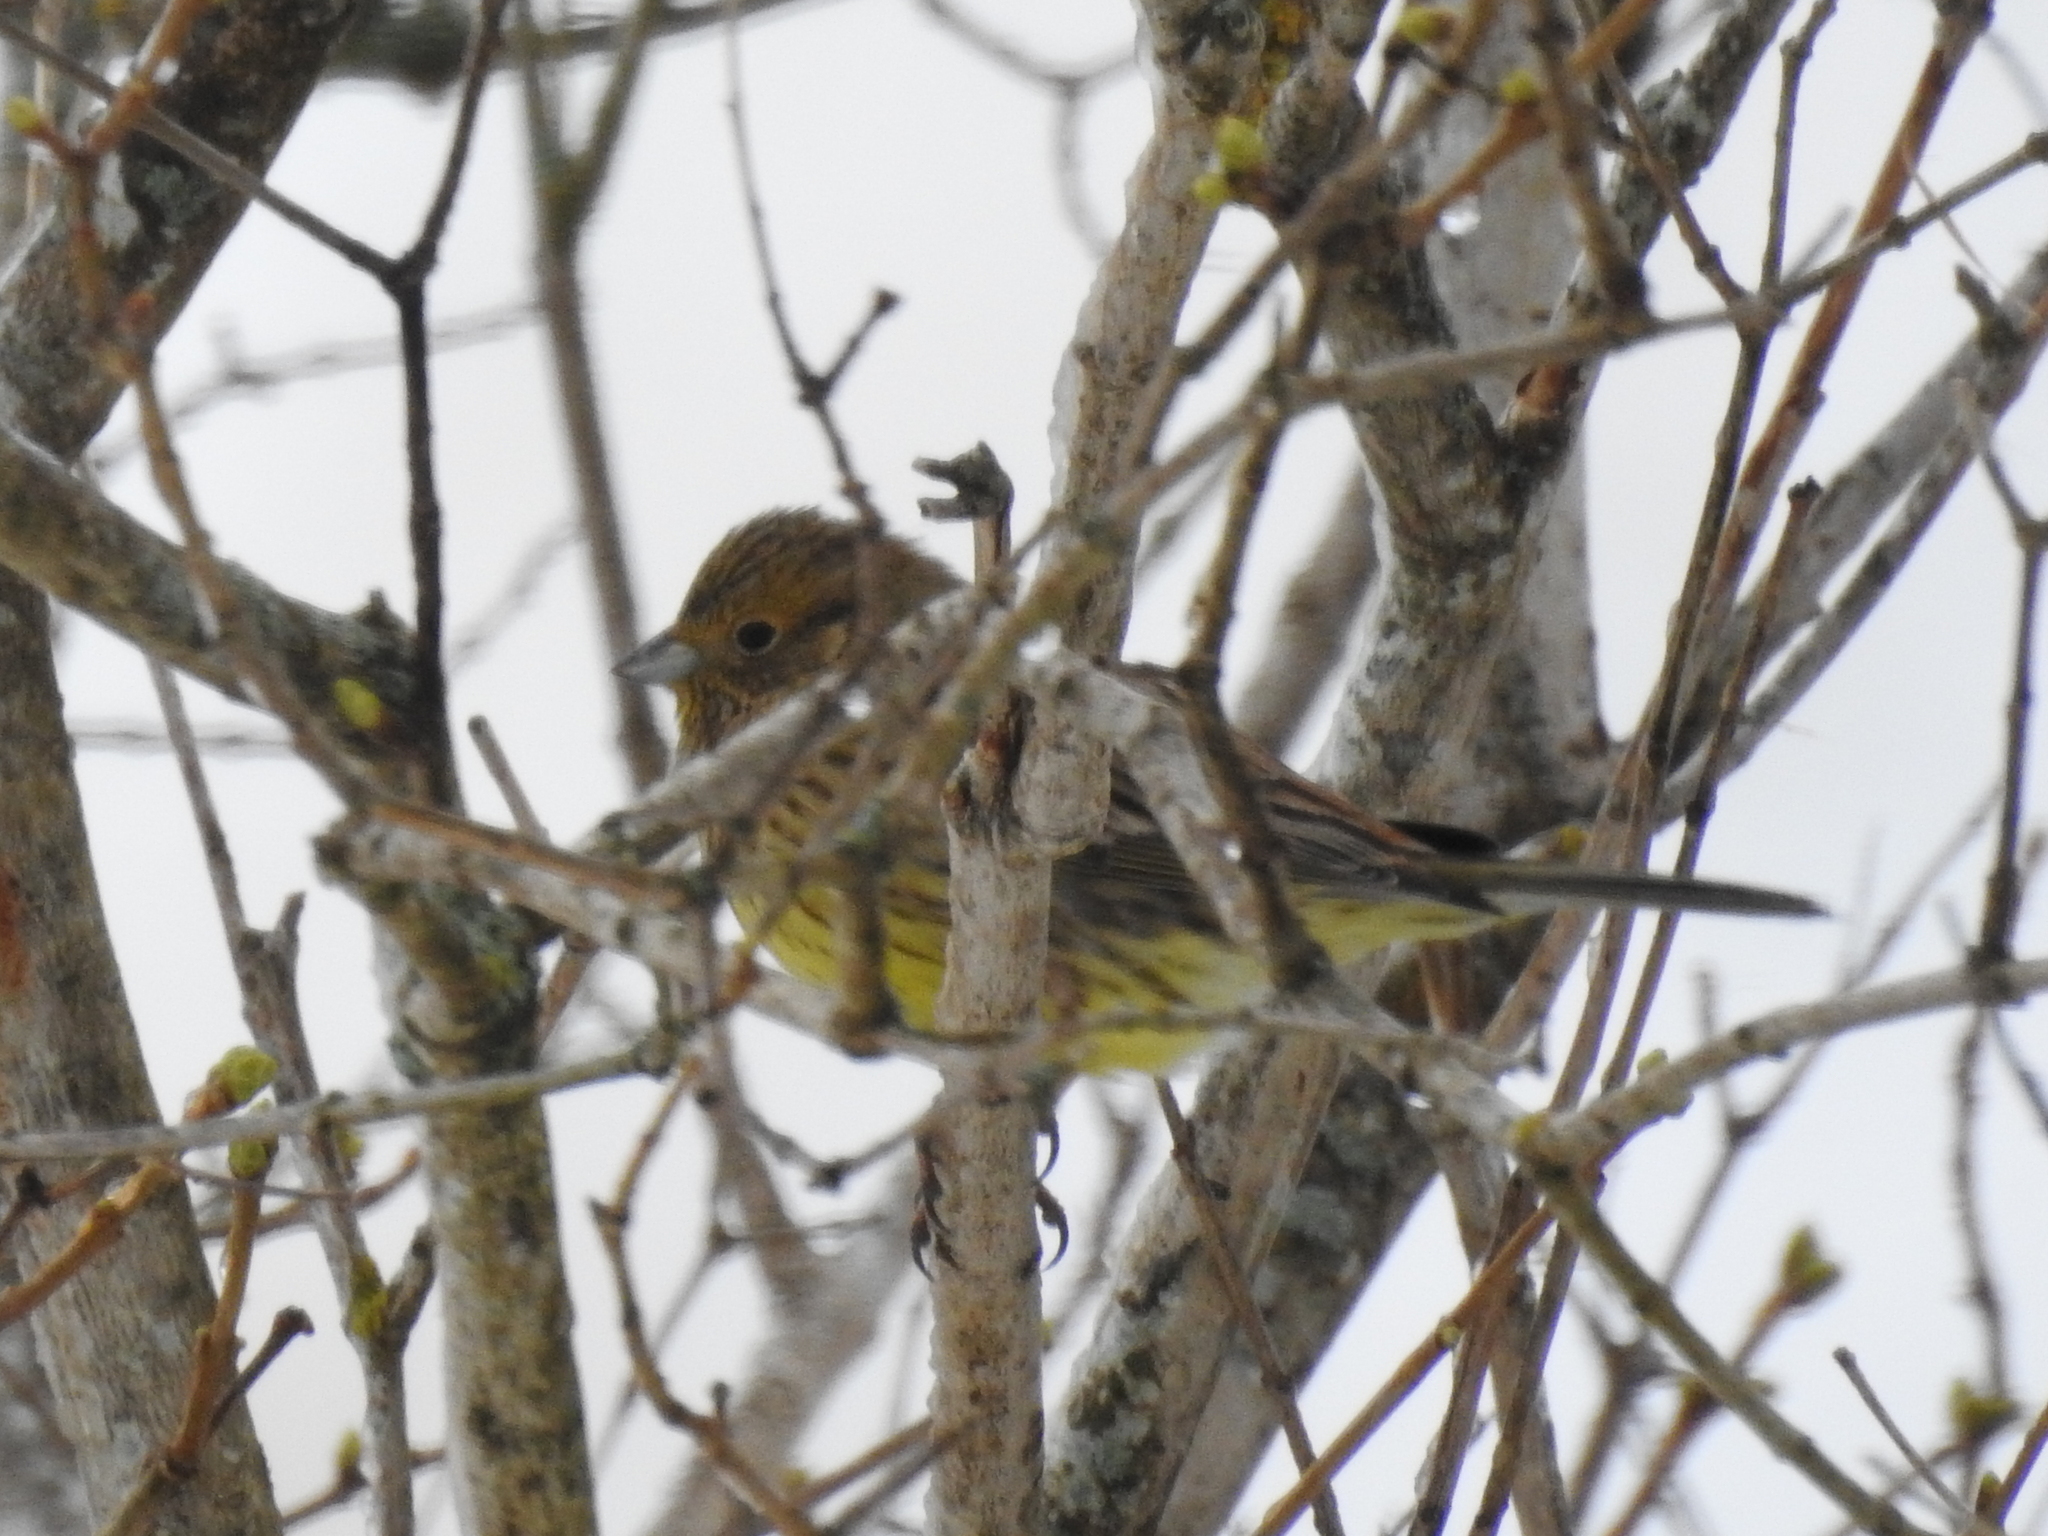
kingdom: Animalia
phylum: Chordata
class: Aves
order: Passeriformes
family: Emberizidae
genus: Emberiza
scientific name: Emberiza citrinella
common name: Yellowhammer
